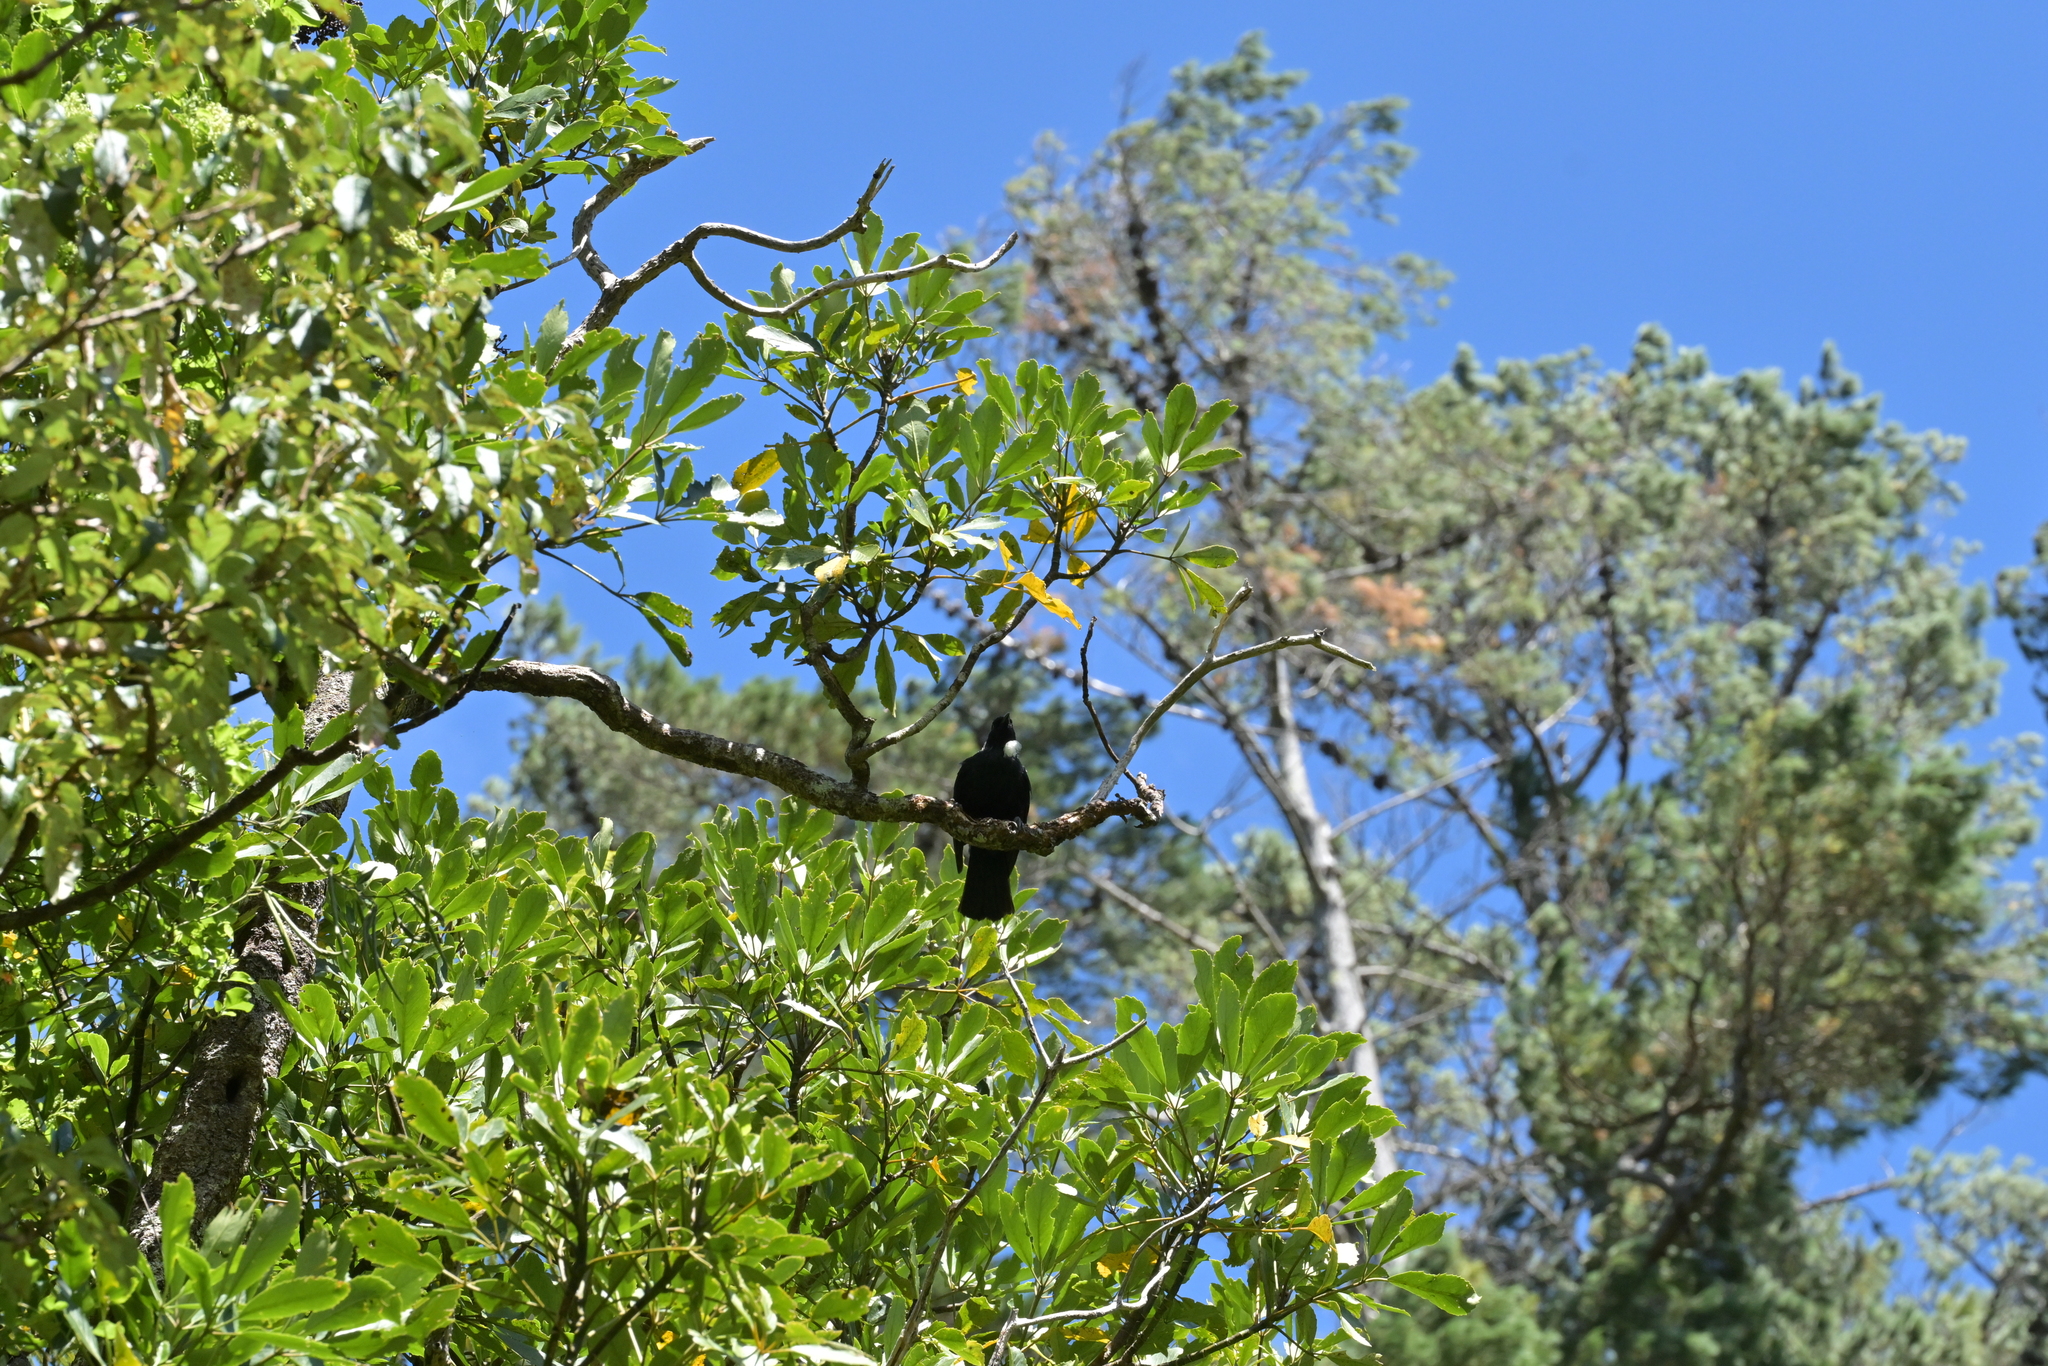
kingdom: Animalia
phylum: Chordata
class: Aves
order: Passeriformes
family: Meliphagidae
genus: Prosthemadera
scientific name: Prosthemadera novaeseelandiae
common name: Tui
